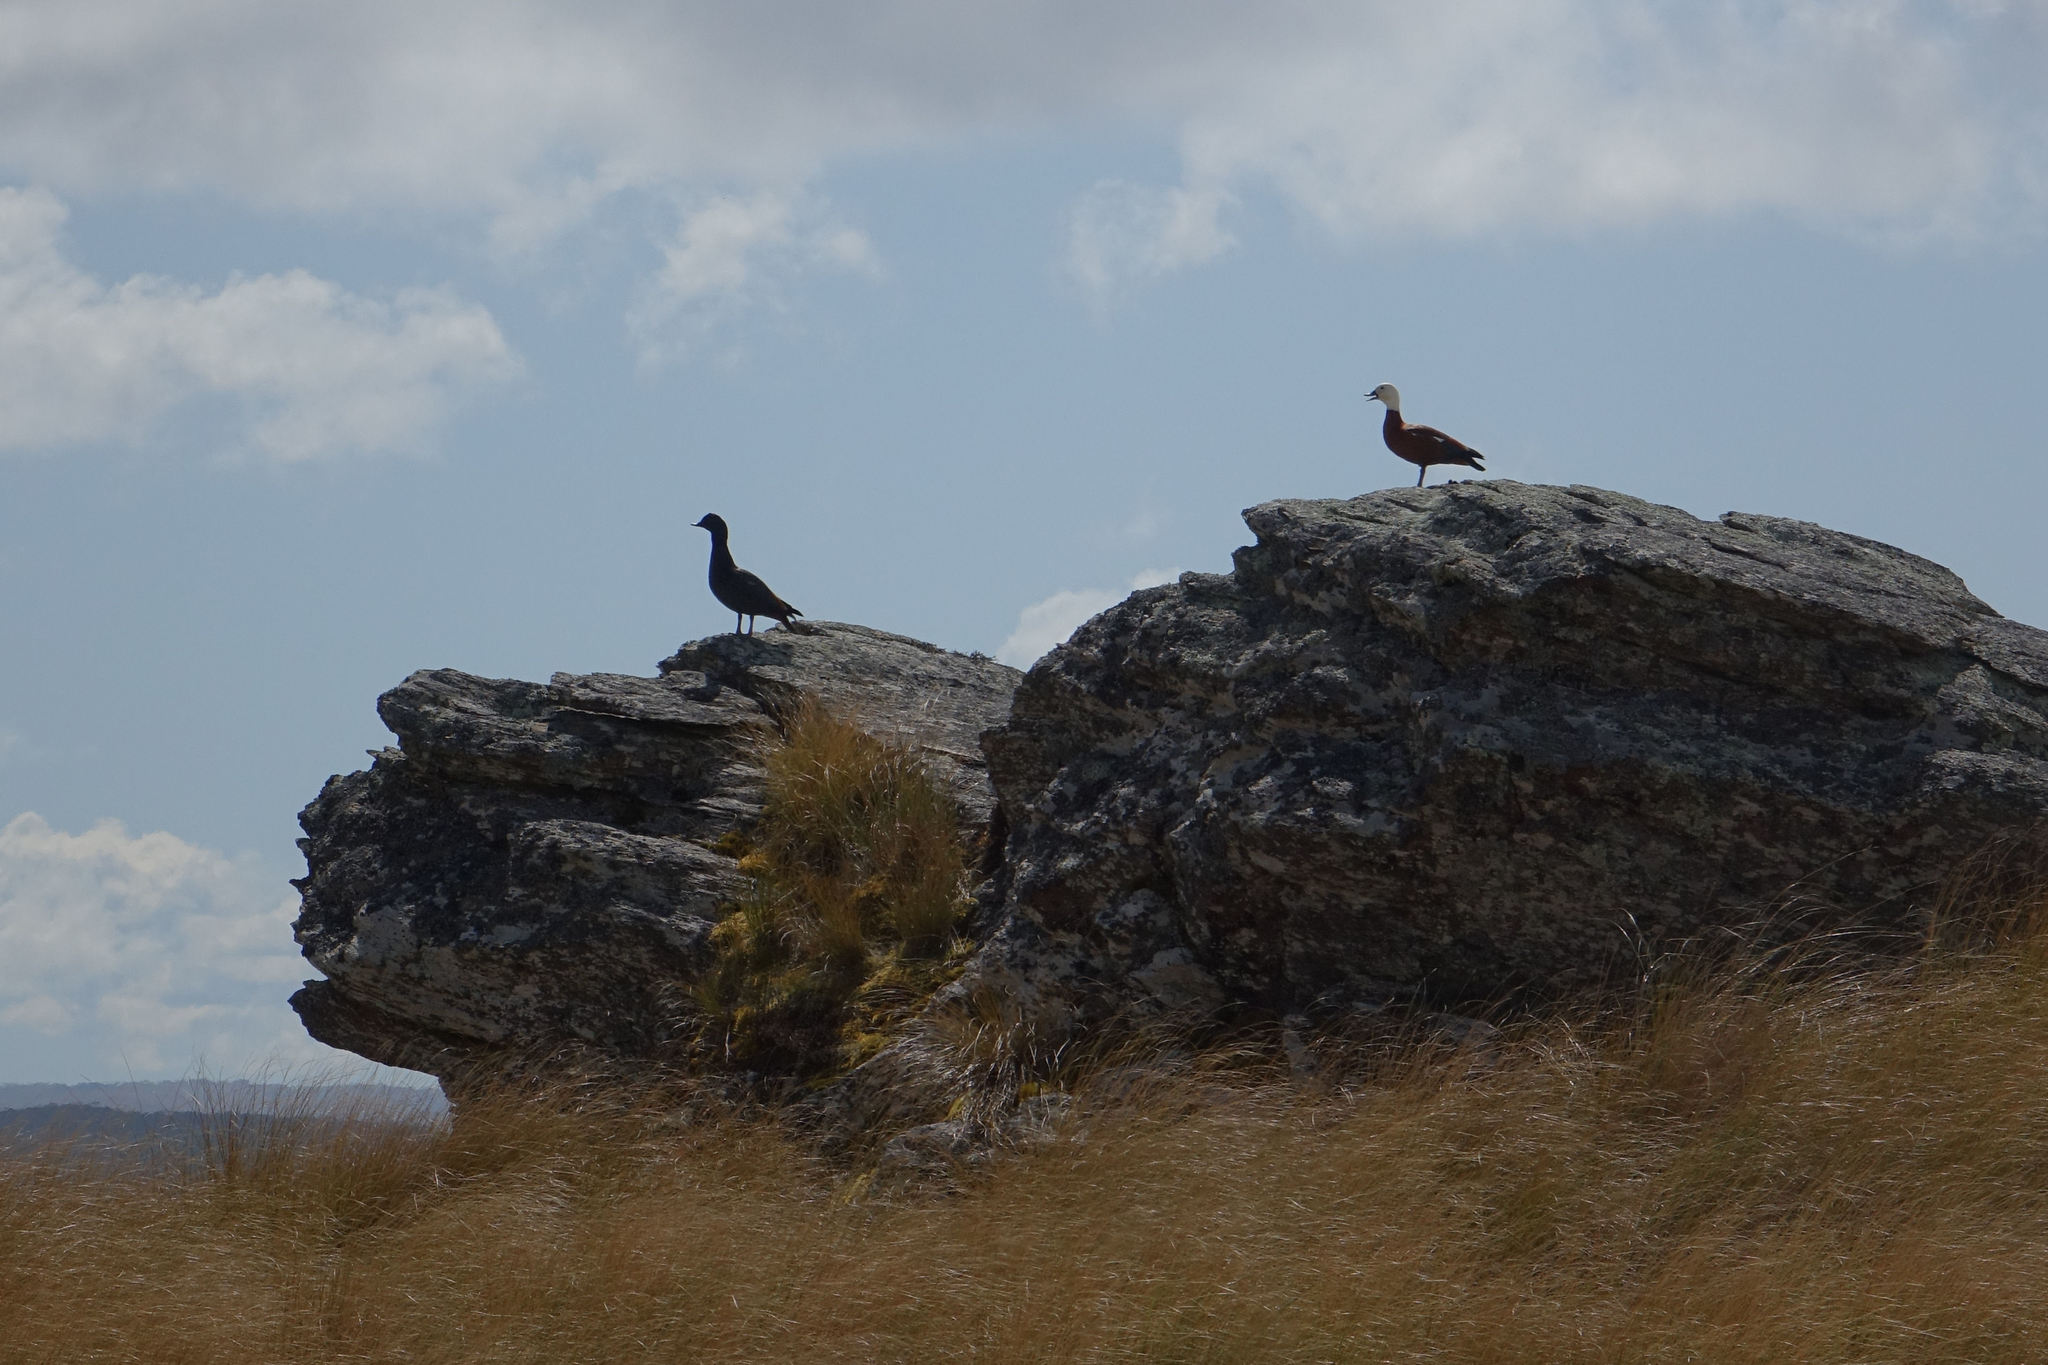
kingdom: Animalia
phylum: Chordata
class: Aves
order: Anseriformes
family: Anatidae
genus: Tadorna
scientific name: Tadorna variegata
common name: Paradise shelduck
